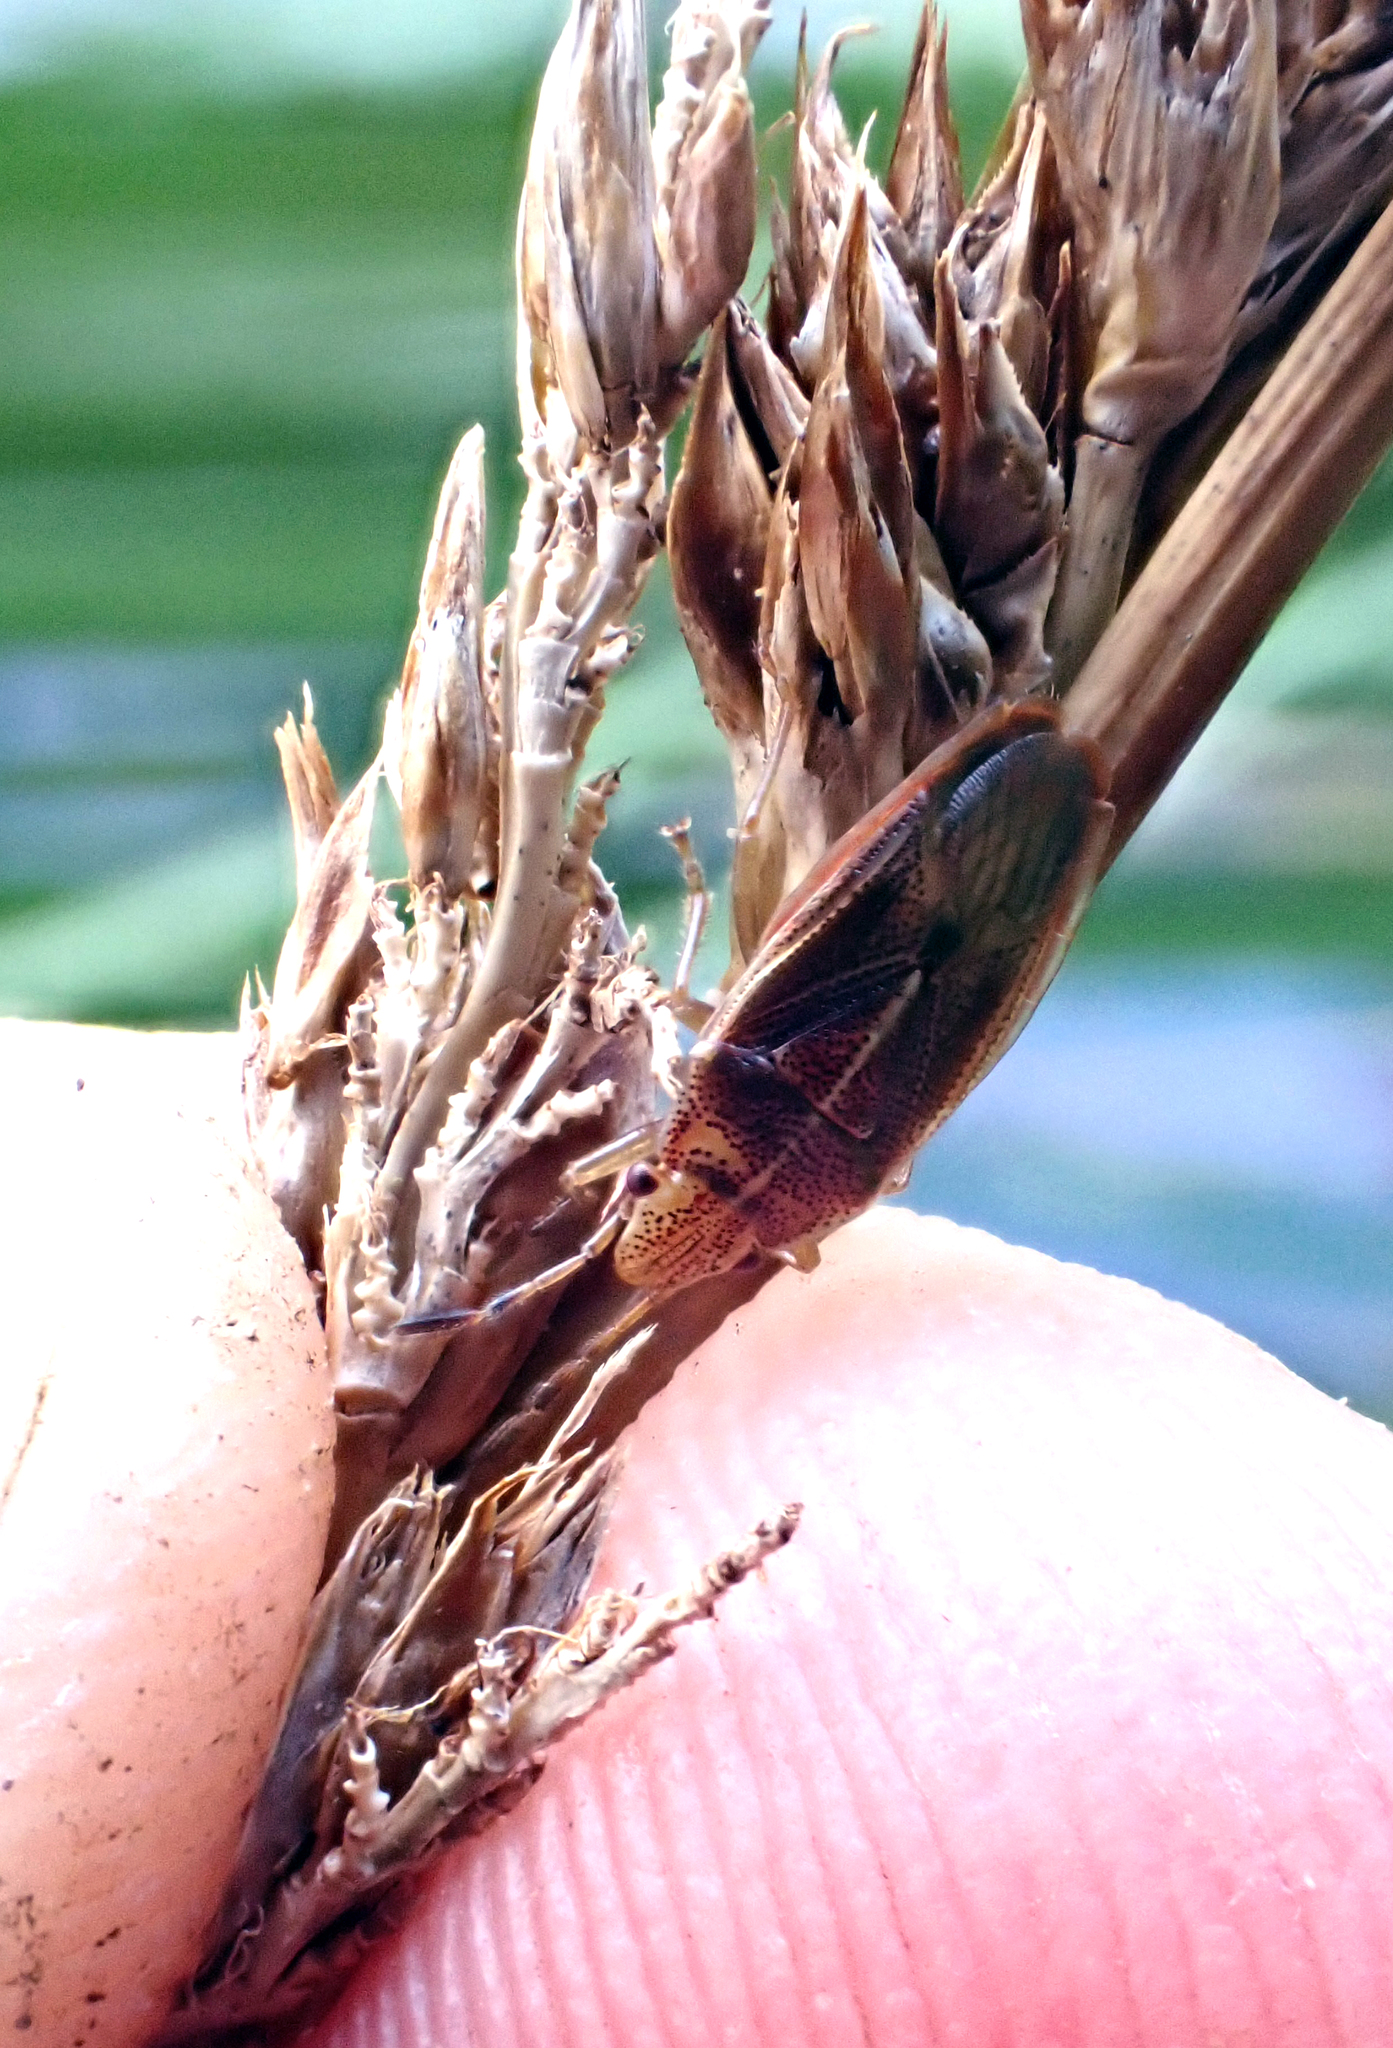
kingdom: Animalia
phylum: Arthropoda
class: Insecta
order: Hemiptera
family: Acanthosomatidae
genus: Rhopalimorpha
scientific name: Rhopalimorpha obscura
